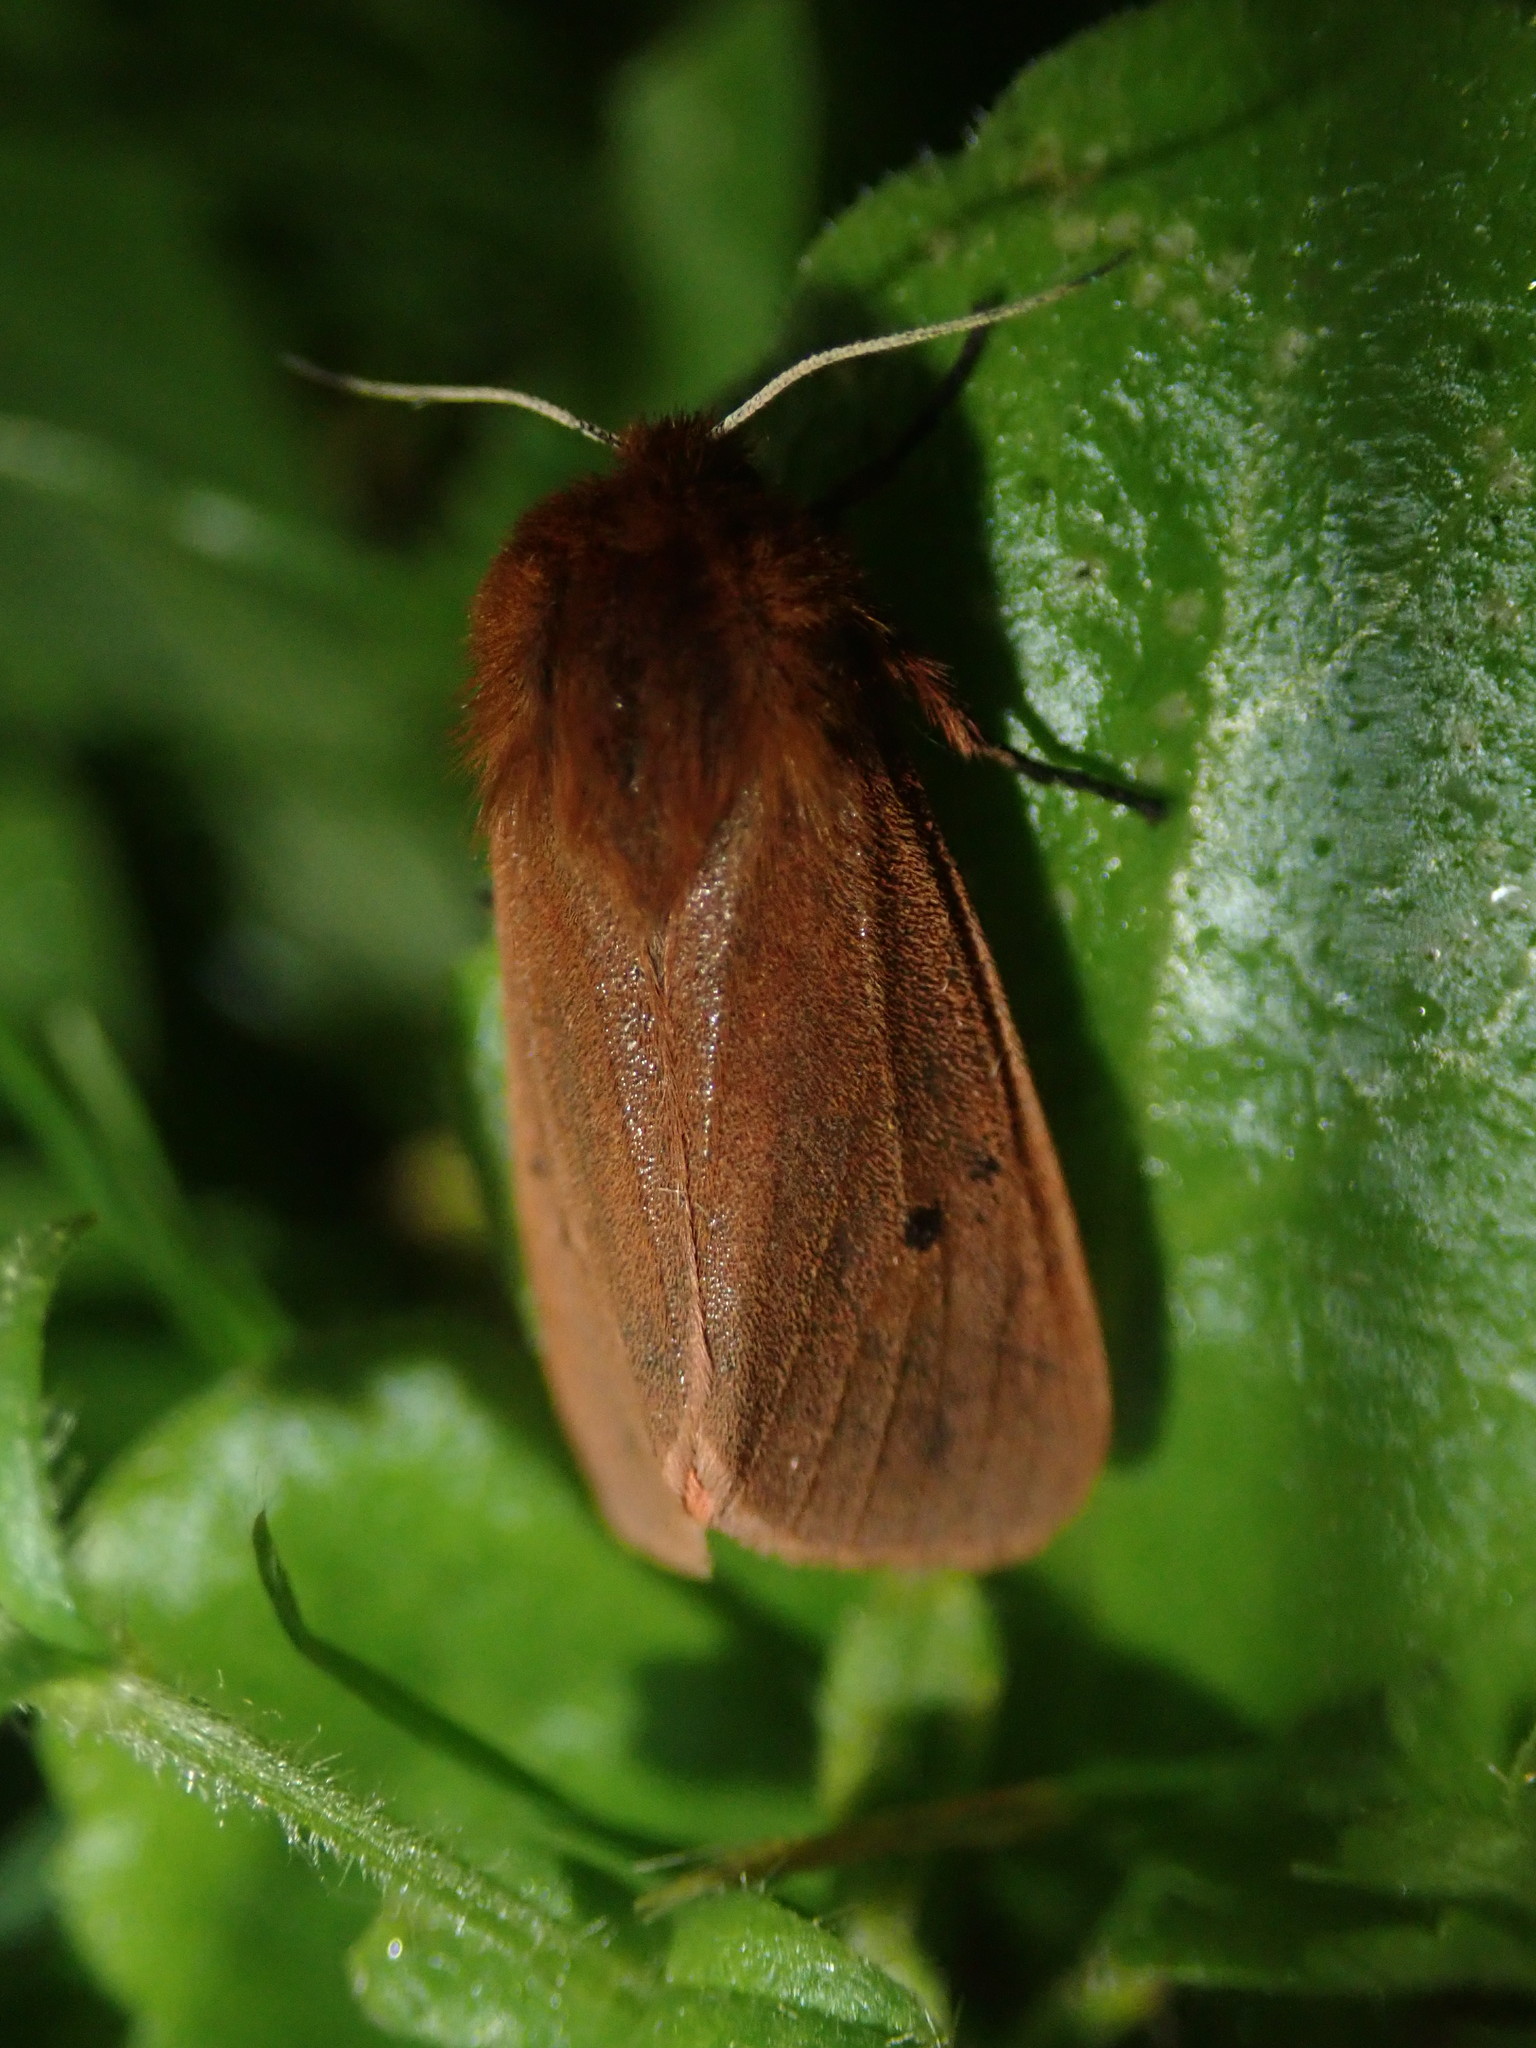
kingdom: Animalia
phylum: Arthropoda
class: Insecta
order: Lepidoptera
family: Erebidae
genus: Phragmatobia
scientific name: Phragmatobia fuliginosa
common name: Ruby tiger
